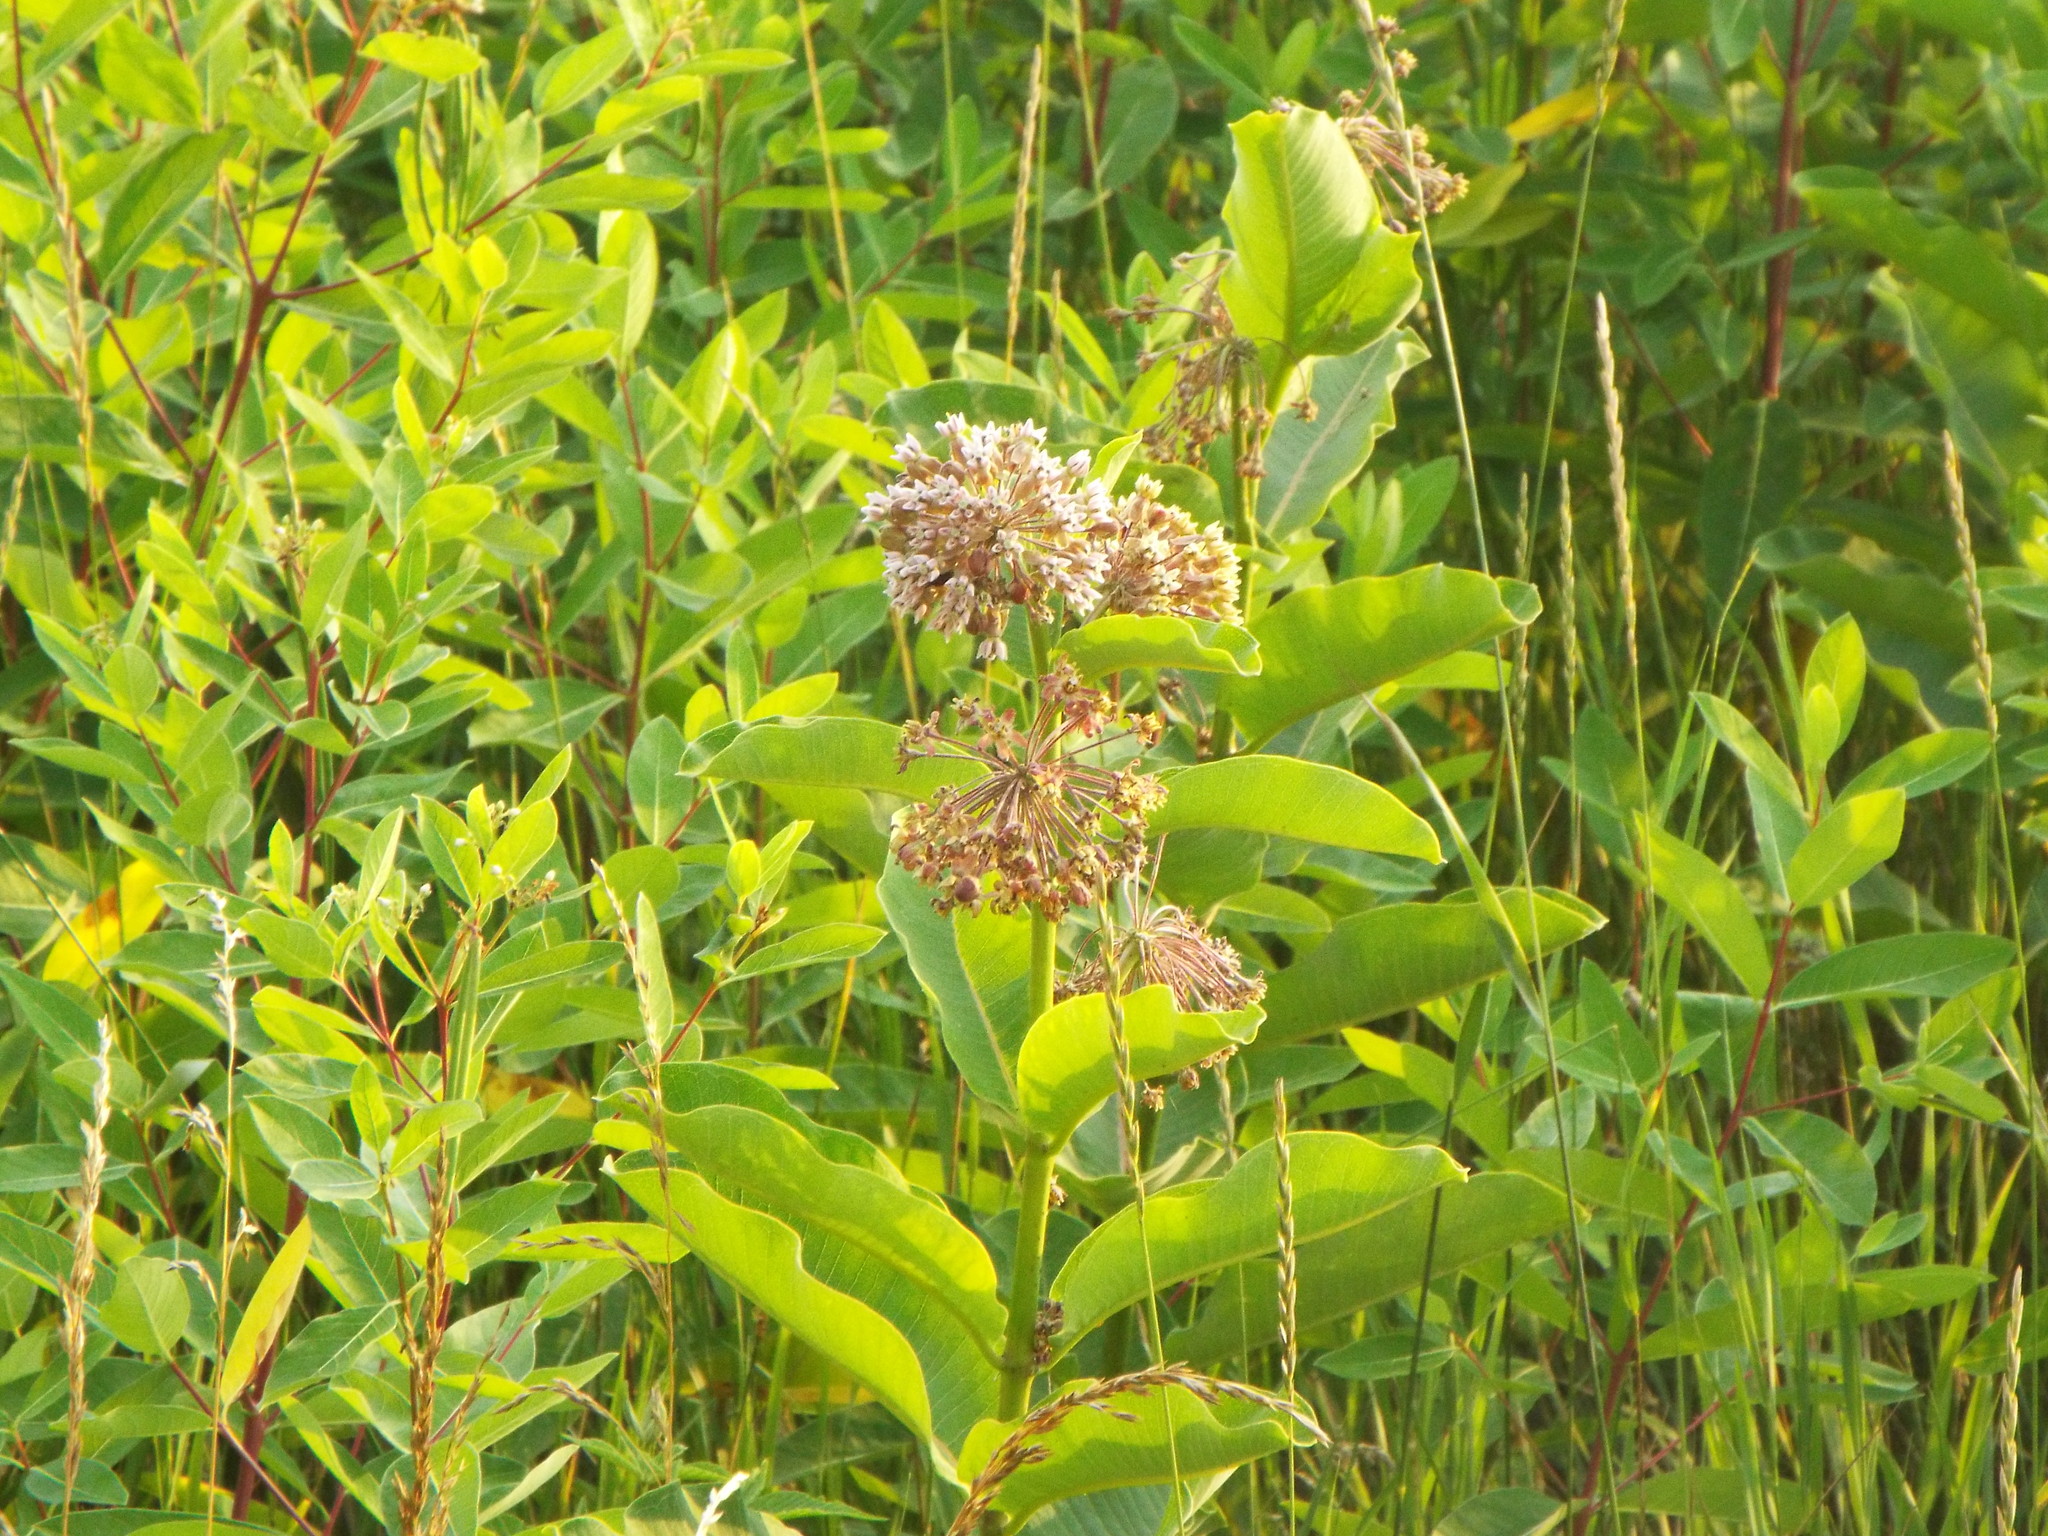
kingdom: Plantae
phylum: Tracheophyta
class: Magnoliopsida
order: Gentianales
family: Apocynaceae
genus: Asclepias
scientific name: Asclepias syriaca
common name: Common milkweed
